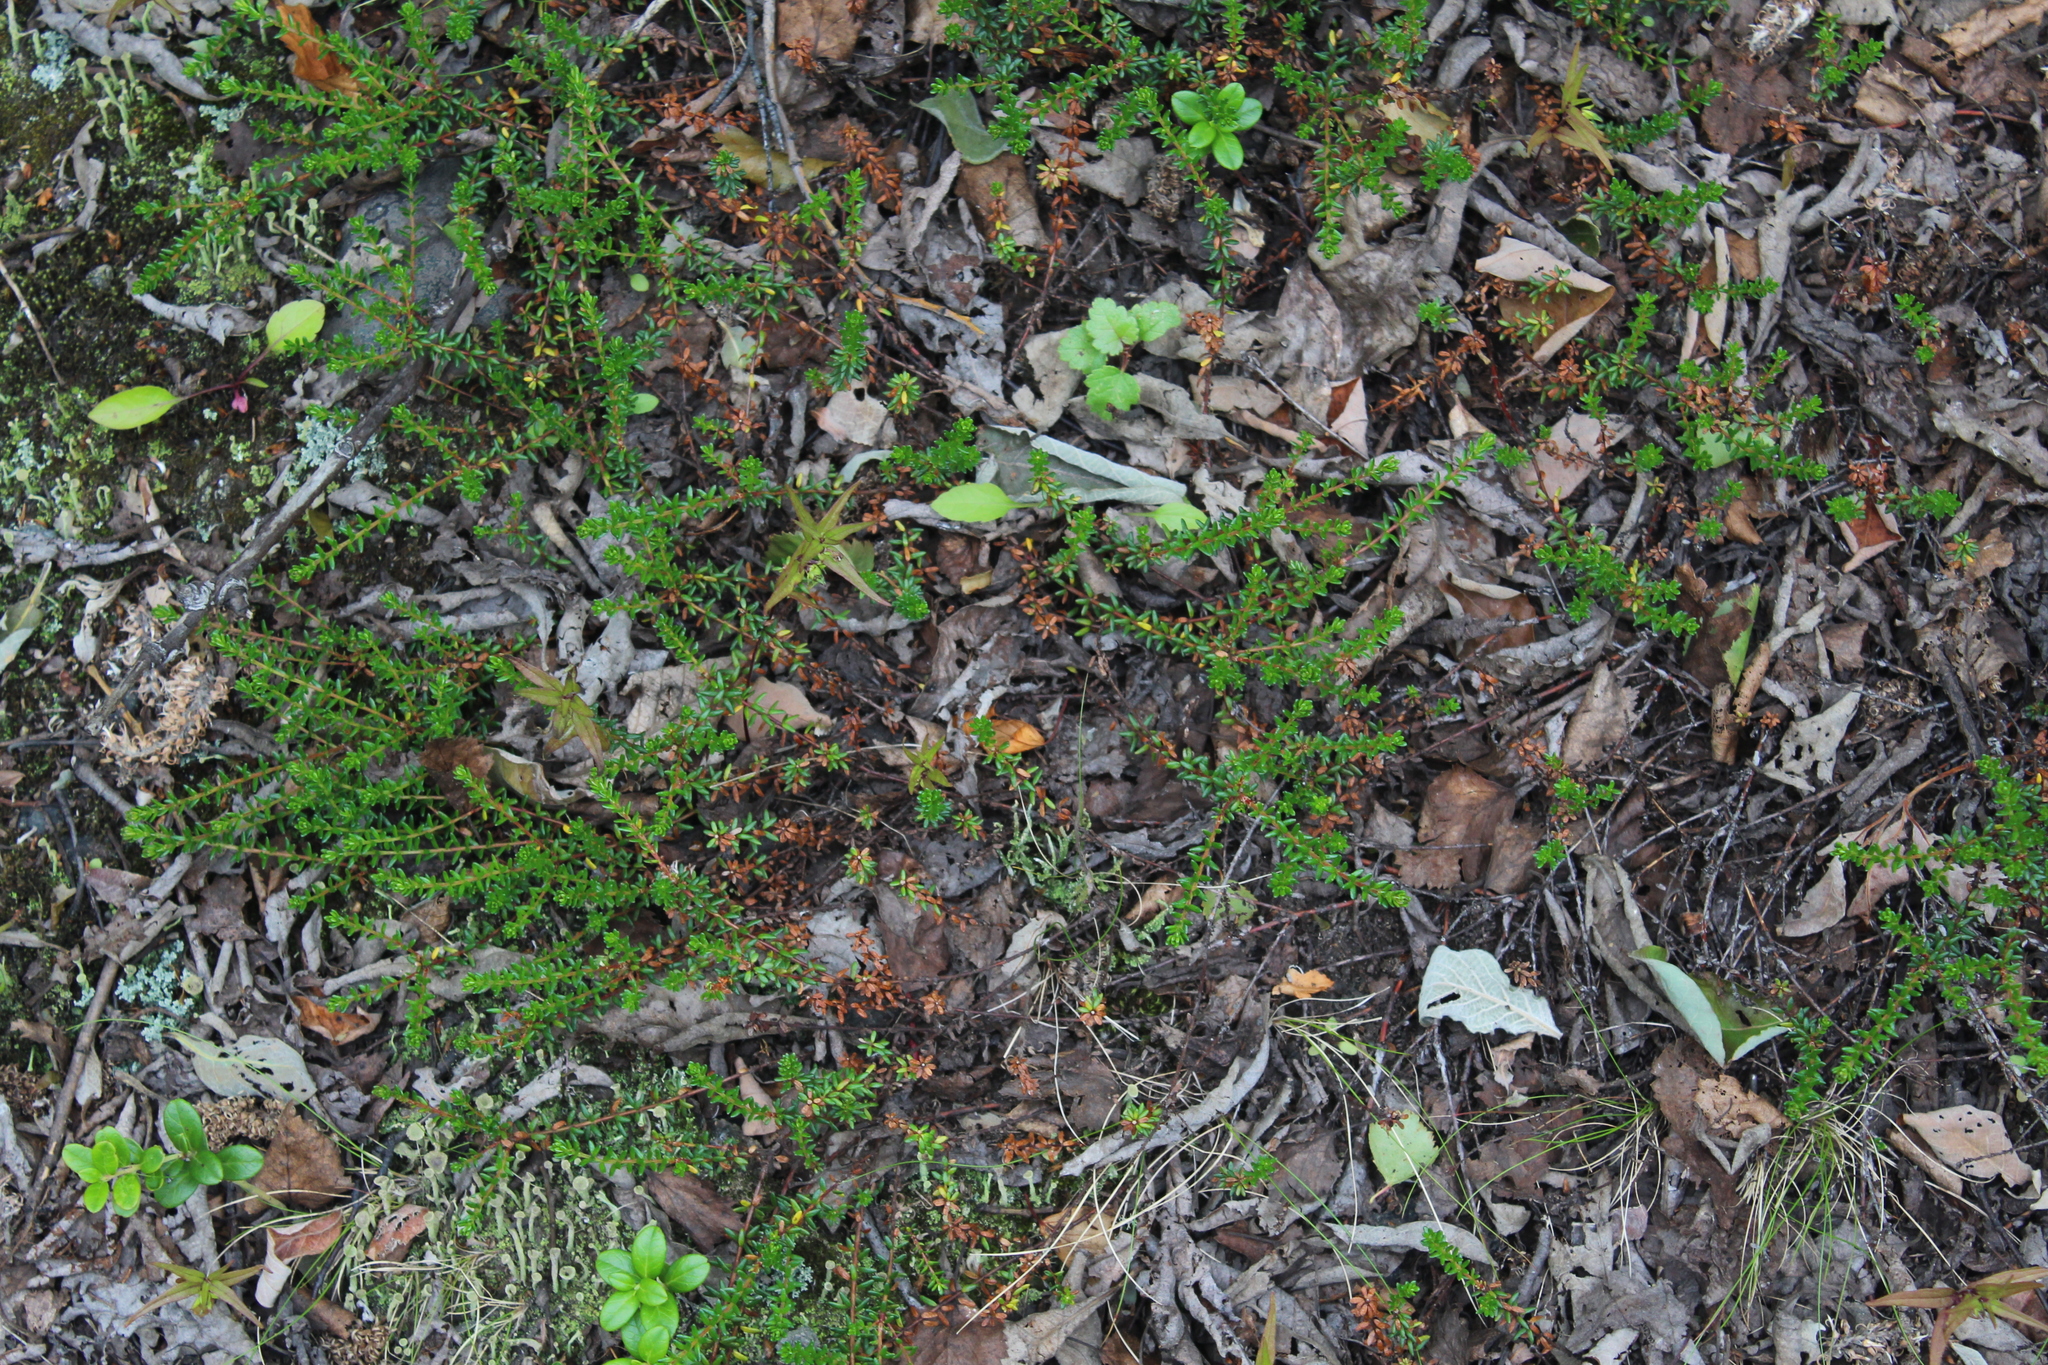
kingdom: Plantae
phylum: Tracheophyta
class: Magnoliopsida
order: Ericales
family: Ericaceae
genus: Empetrum
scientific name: Empetrum nigrum
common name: Black crowberry
